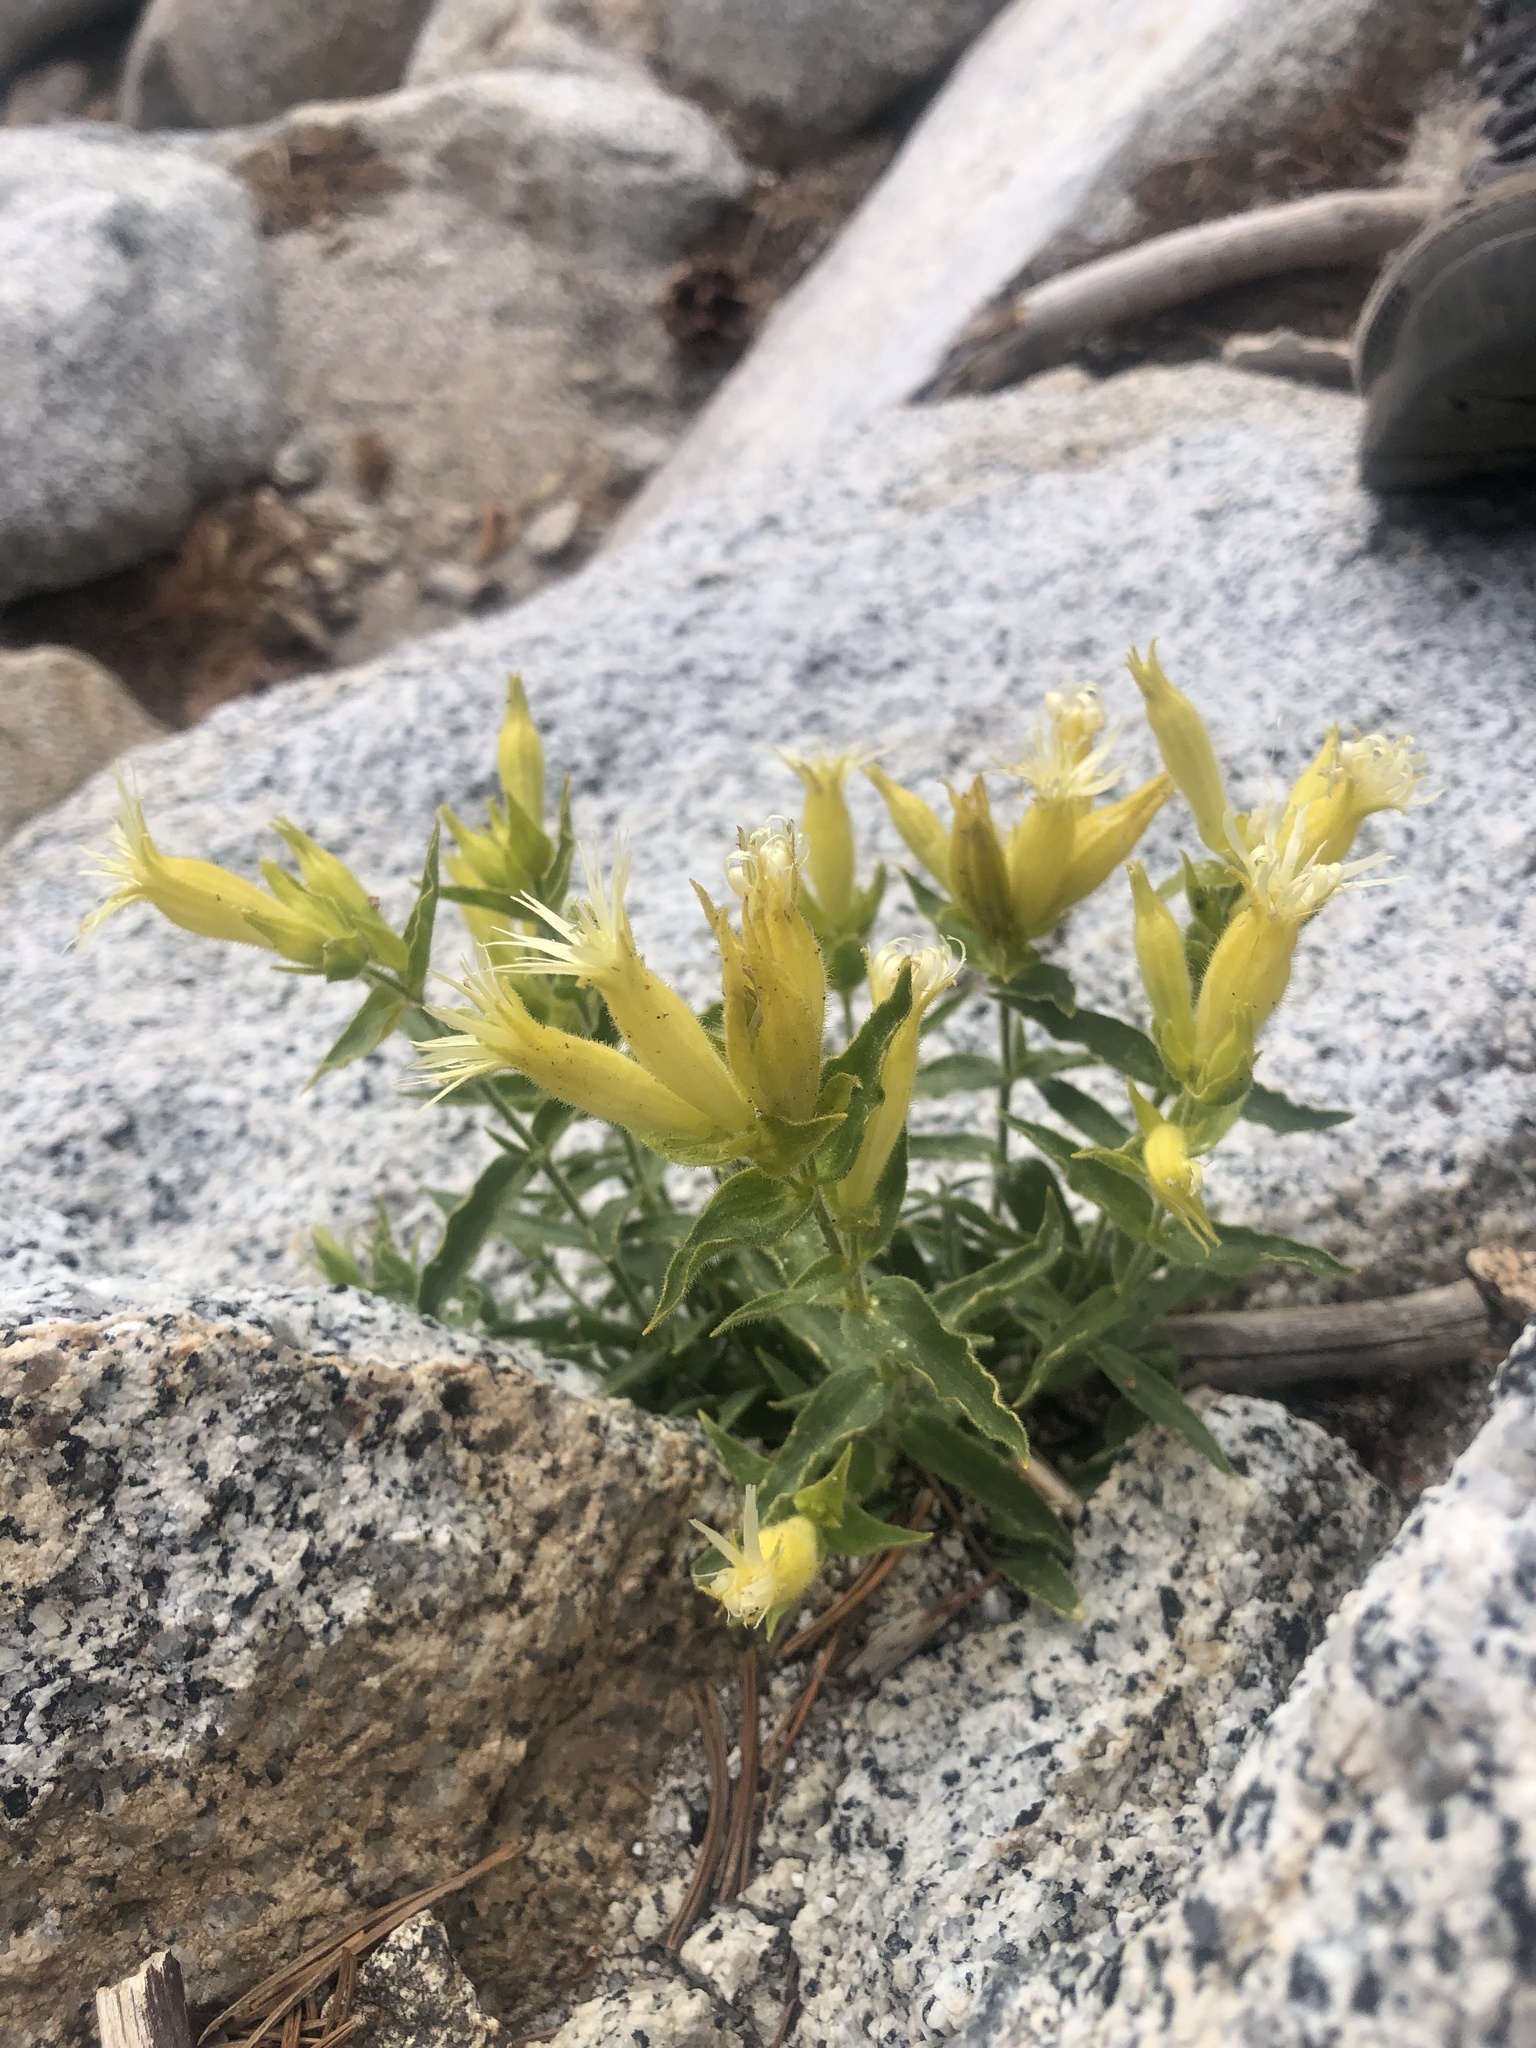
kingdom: Plantae
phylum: Tracheophyta
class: Magnoliopsida
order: Caryophyllales
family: Caryophyllaceae
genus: Silene
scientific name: Silene parishii
